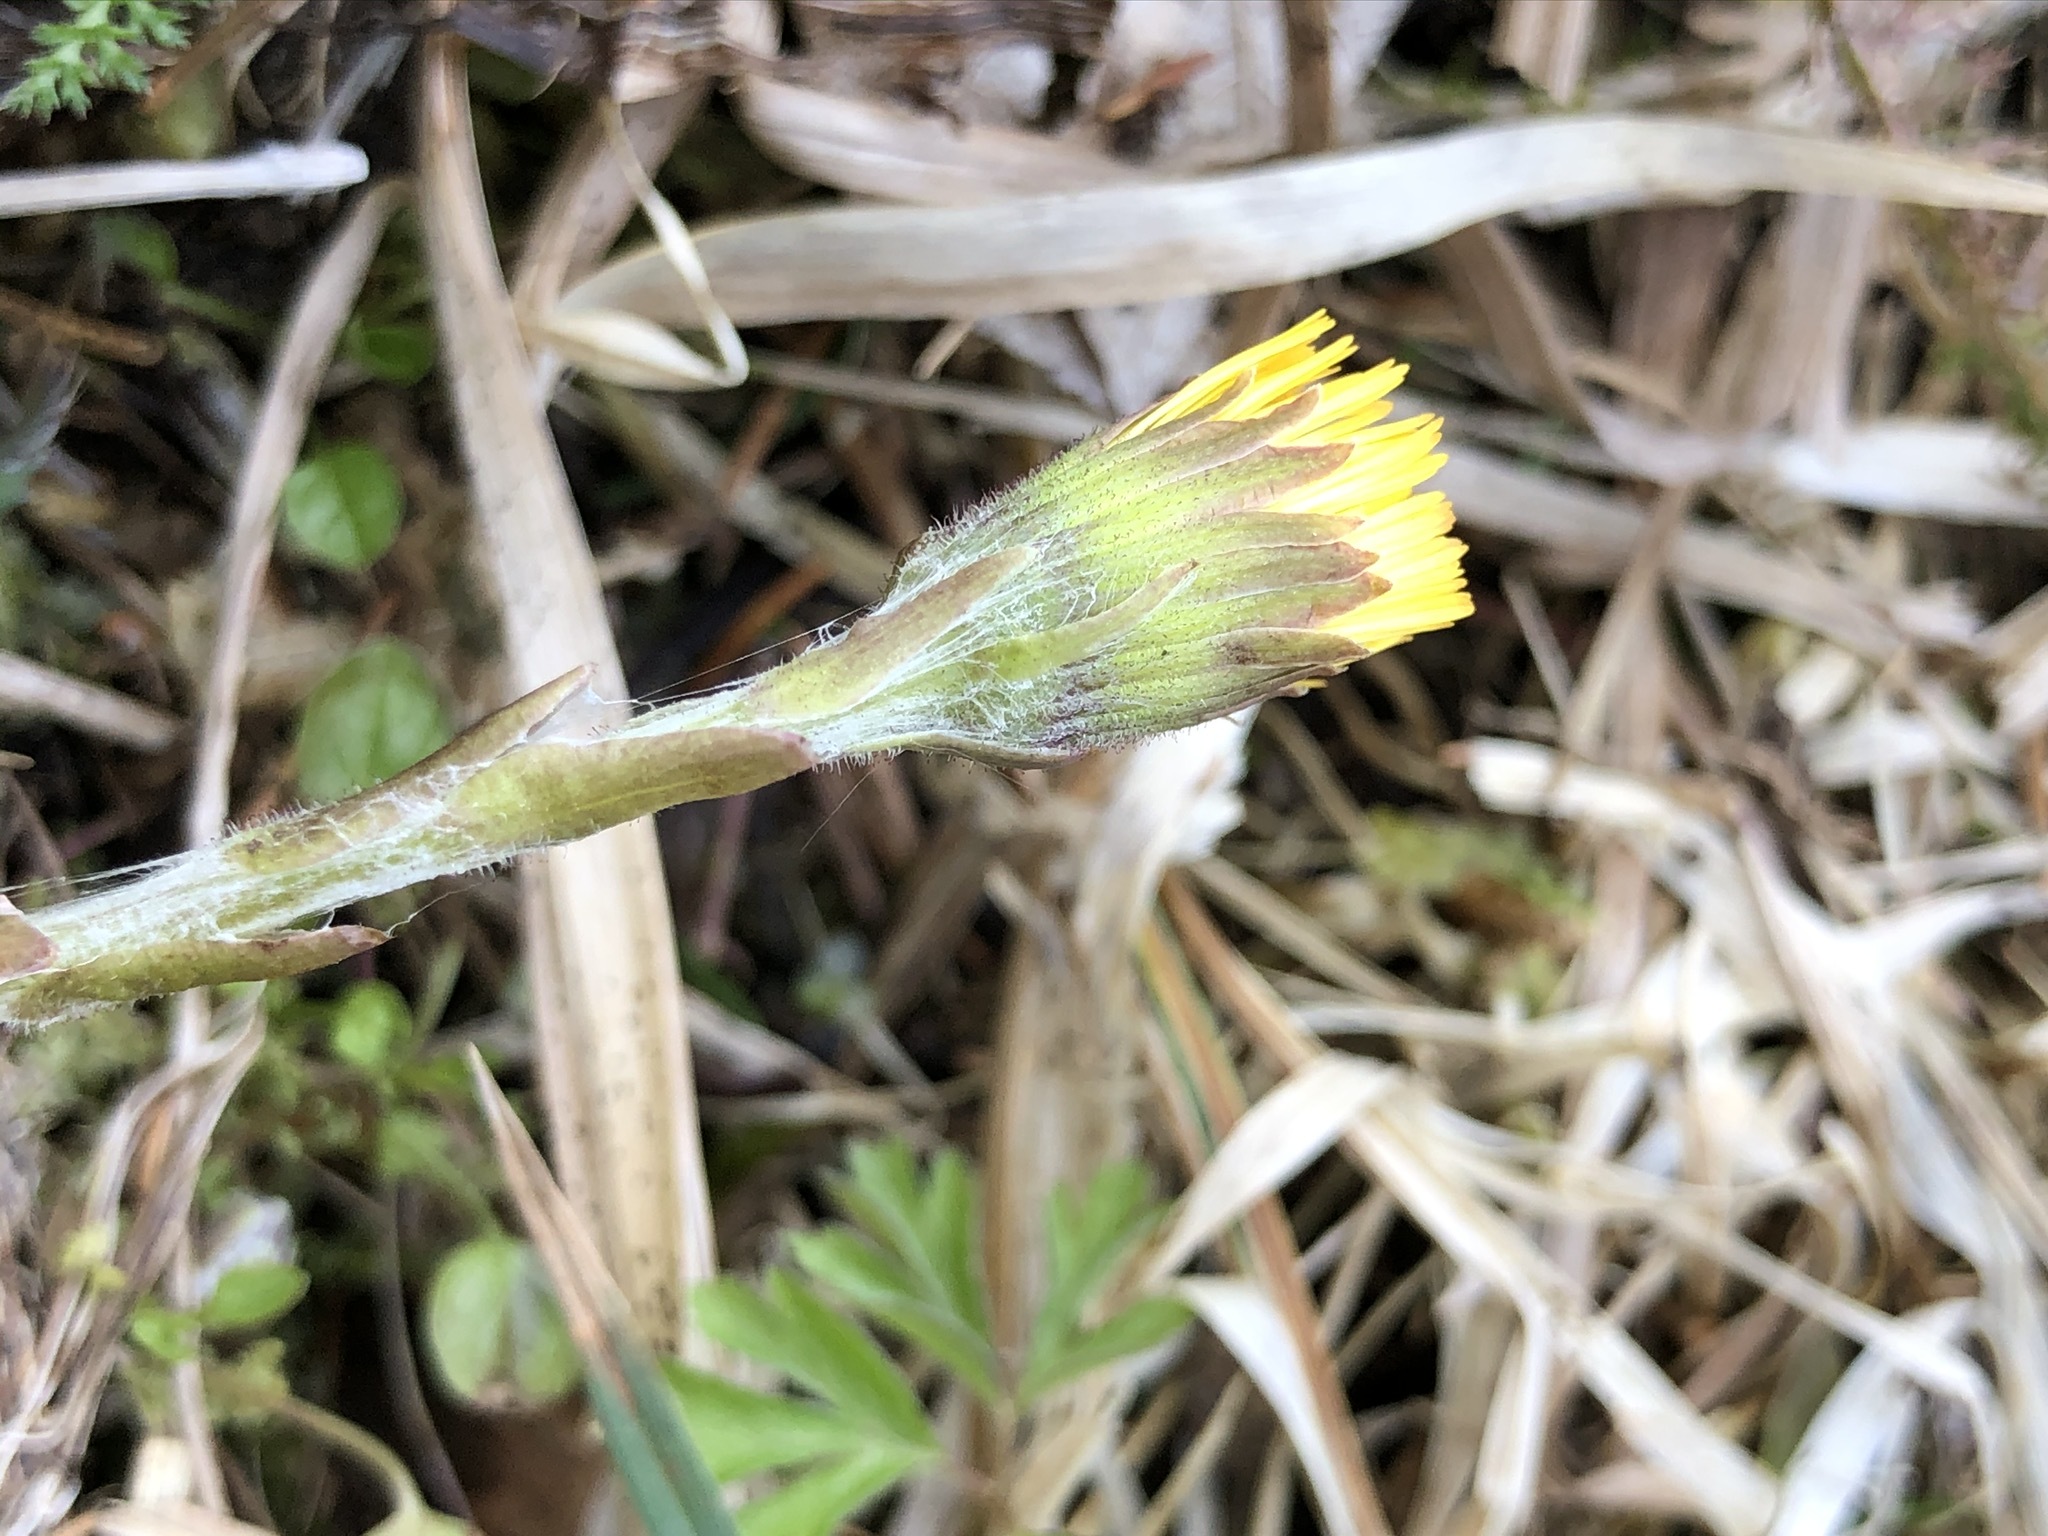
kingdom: Plantae
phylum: Tracheophyta
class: Magnoliopsida
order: Asterales
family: Asteraceae
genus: Tussilago
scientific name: Tussilago farfara
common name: Coltsfoot
